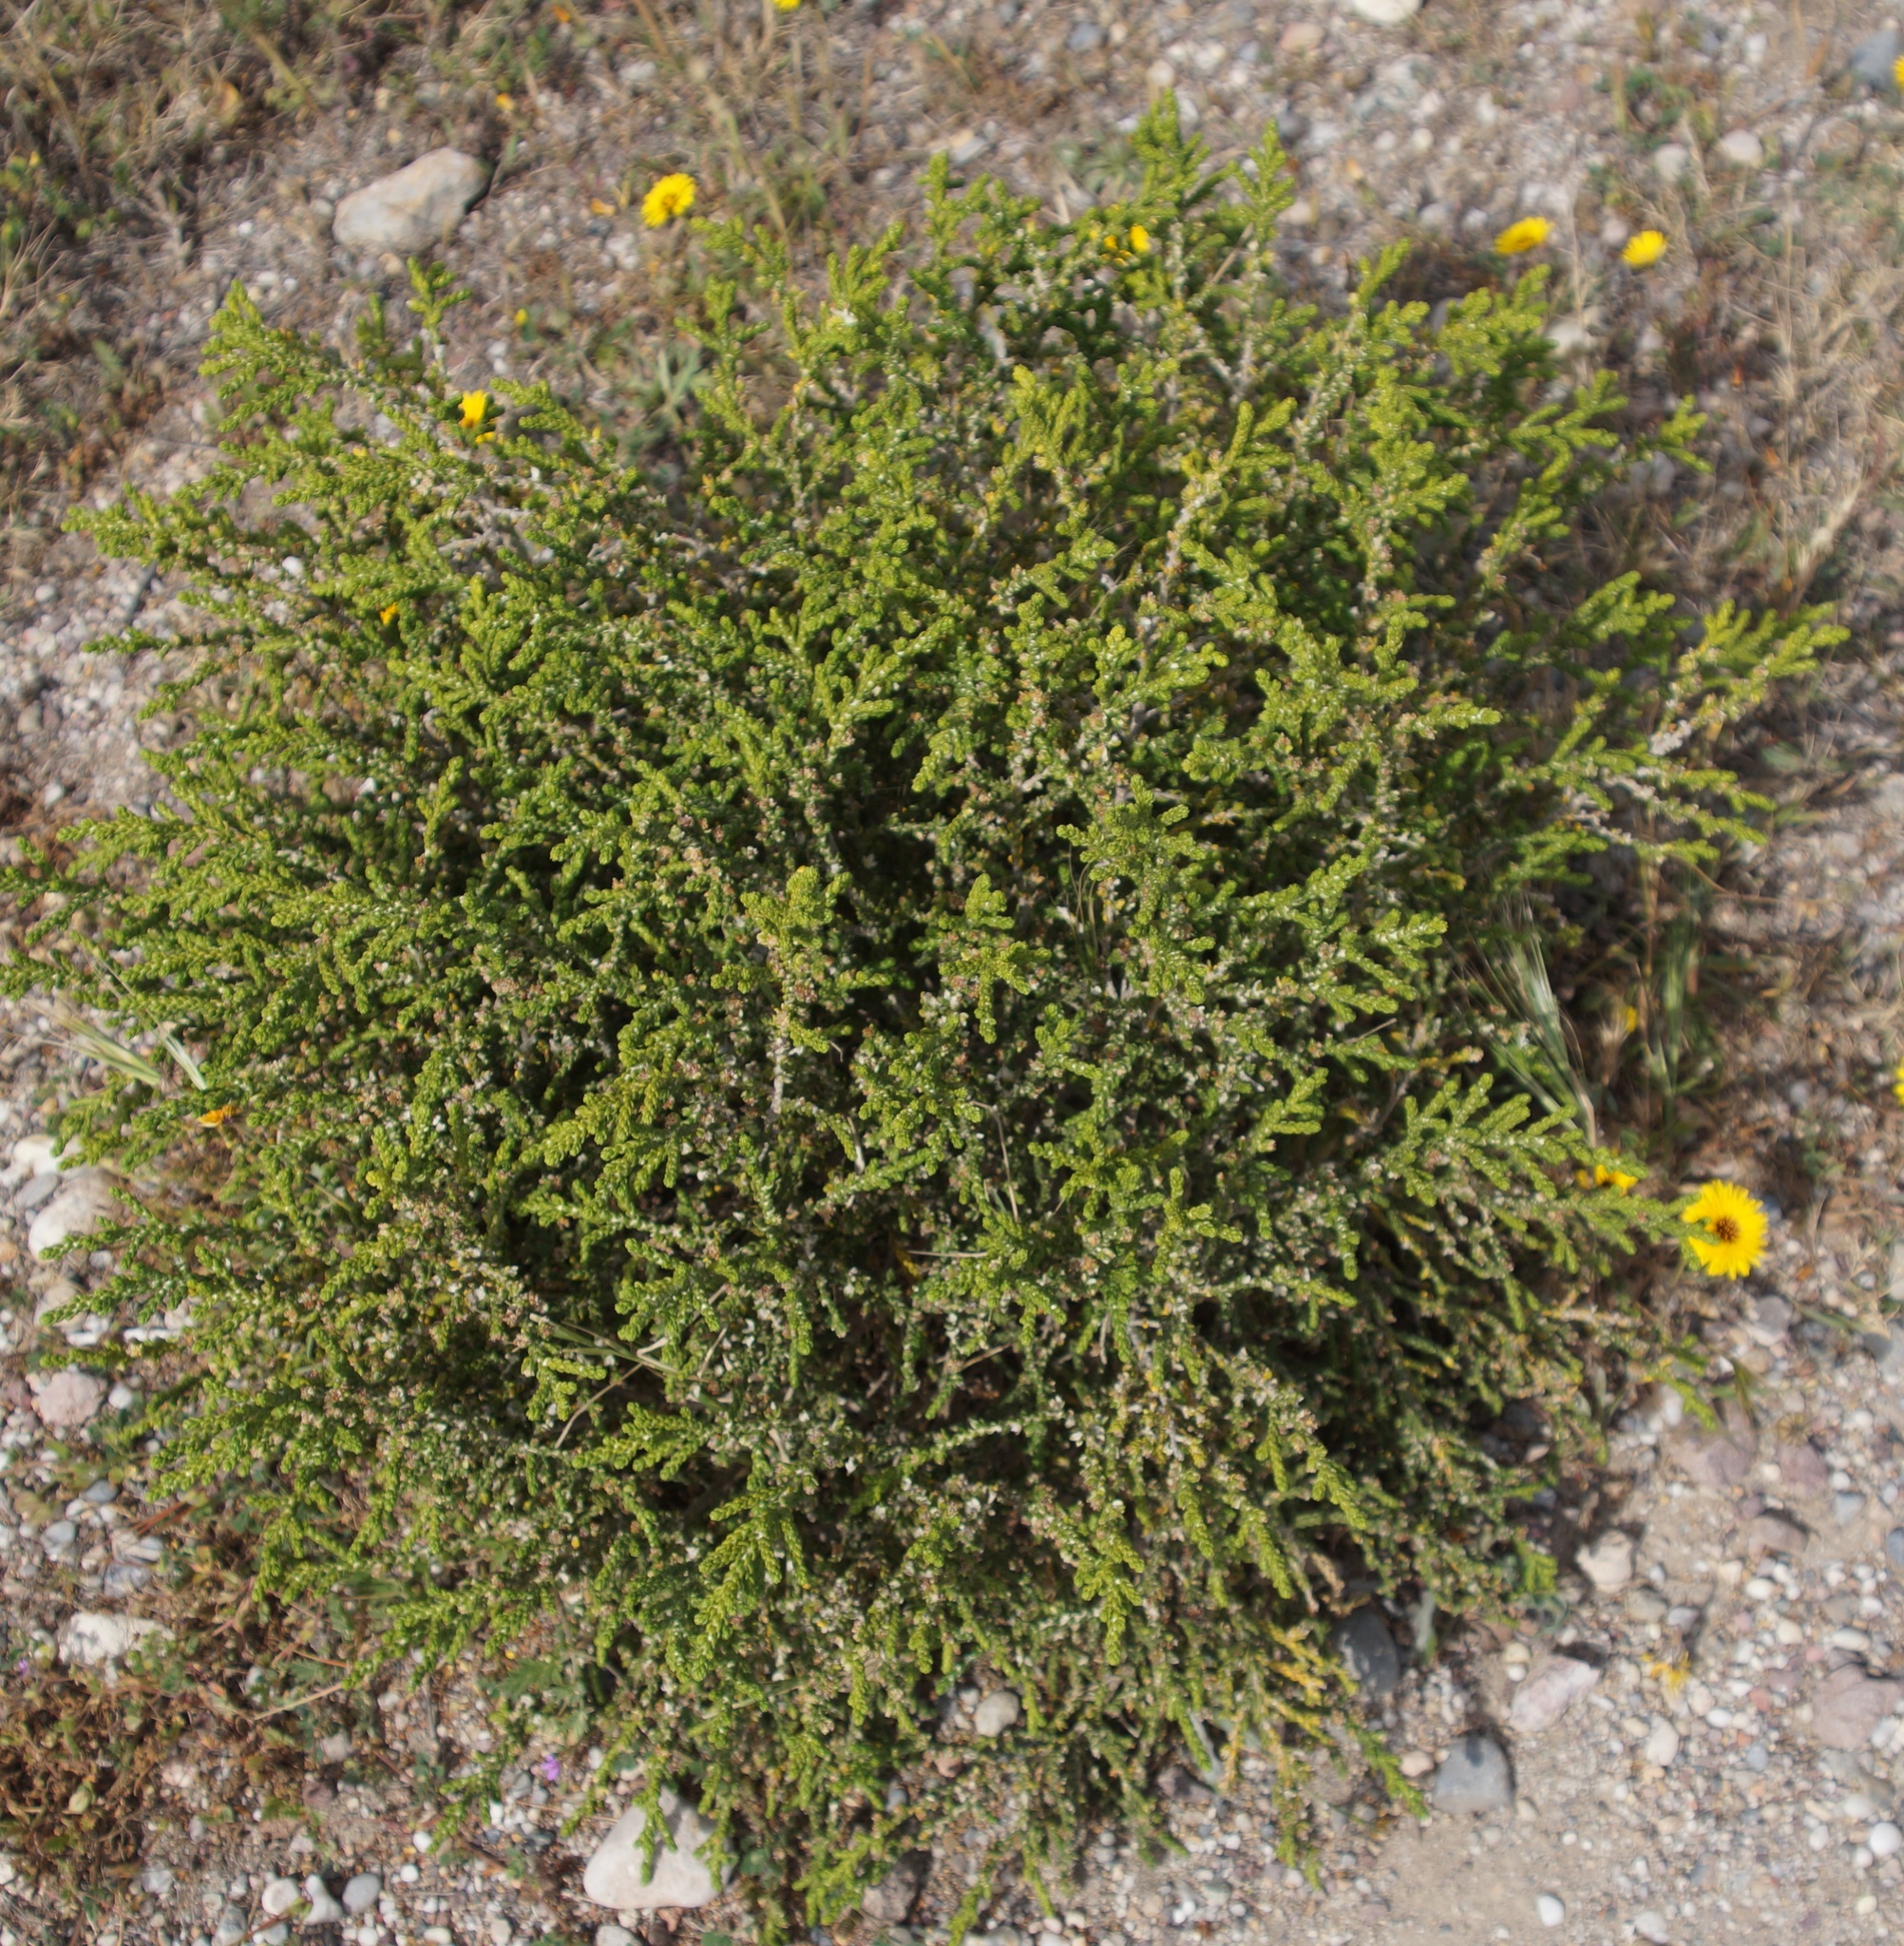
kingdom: Plantae
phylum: Tracheophyta
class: Magnoliopsida
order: Malvales
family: Thymelaeaceae
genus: Thymelaea
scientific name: Thymelaea hirsuta
